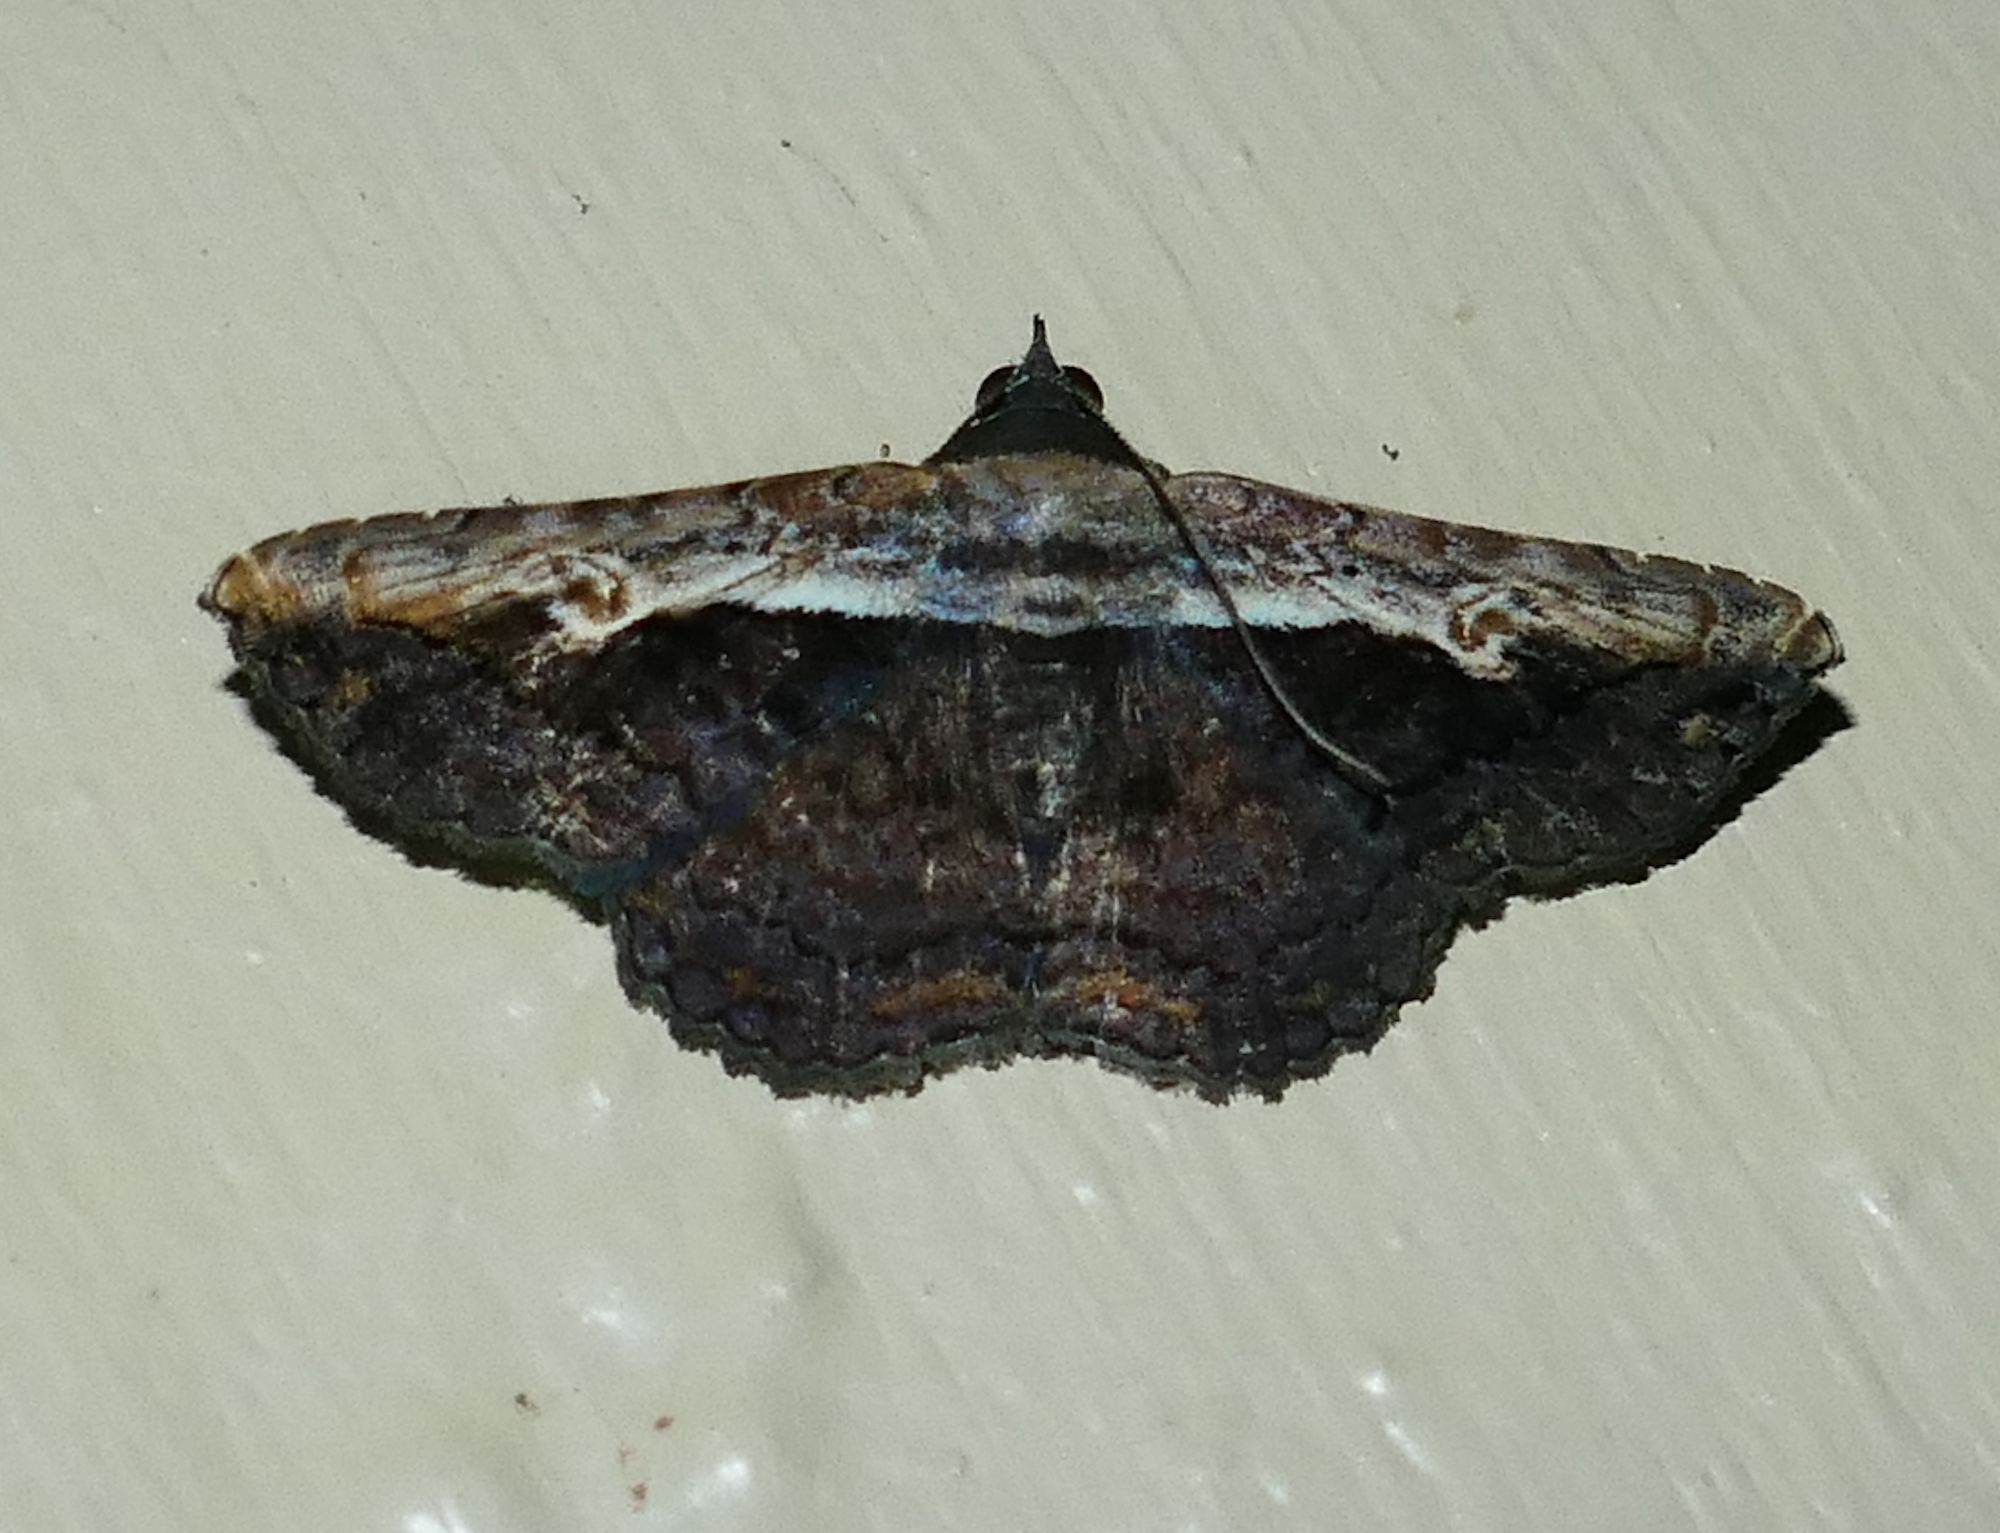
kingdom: Animalia
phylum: Arthropoda
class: Insecta
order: Lepidoptera
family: Erebidae
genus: Selenisa
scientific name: Selenisa sueroides
